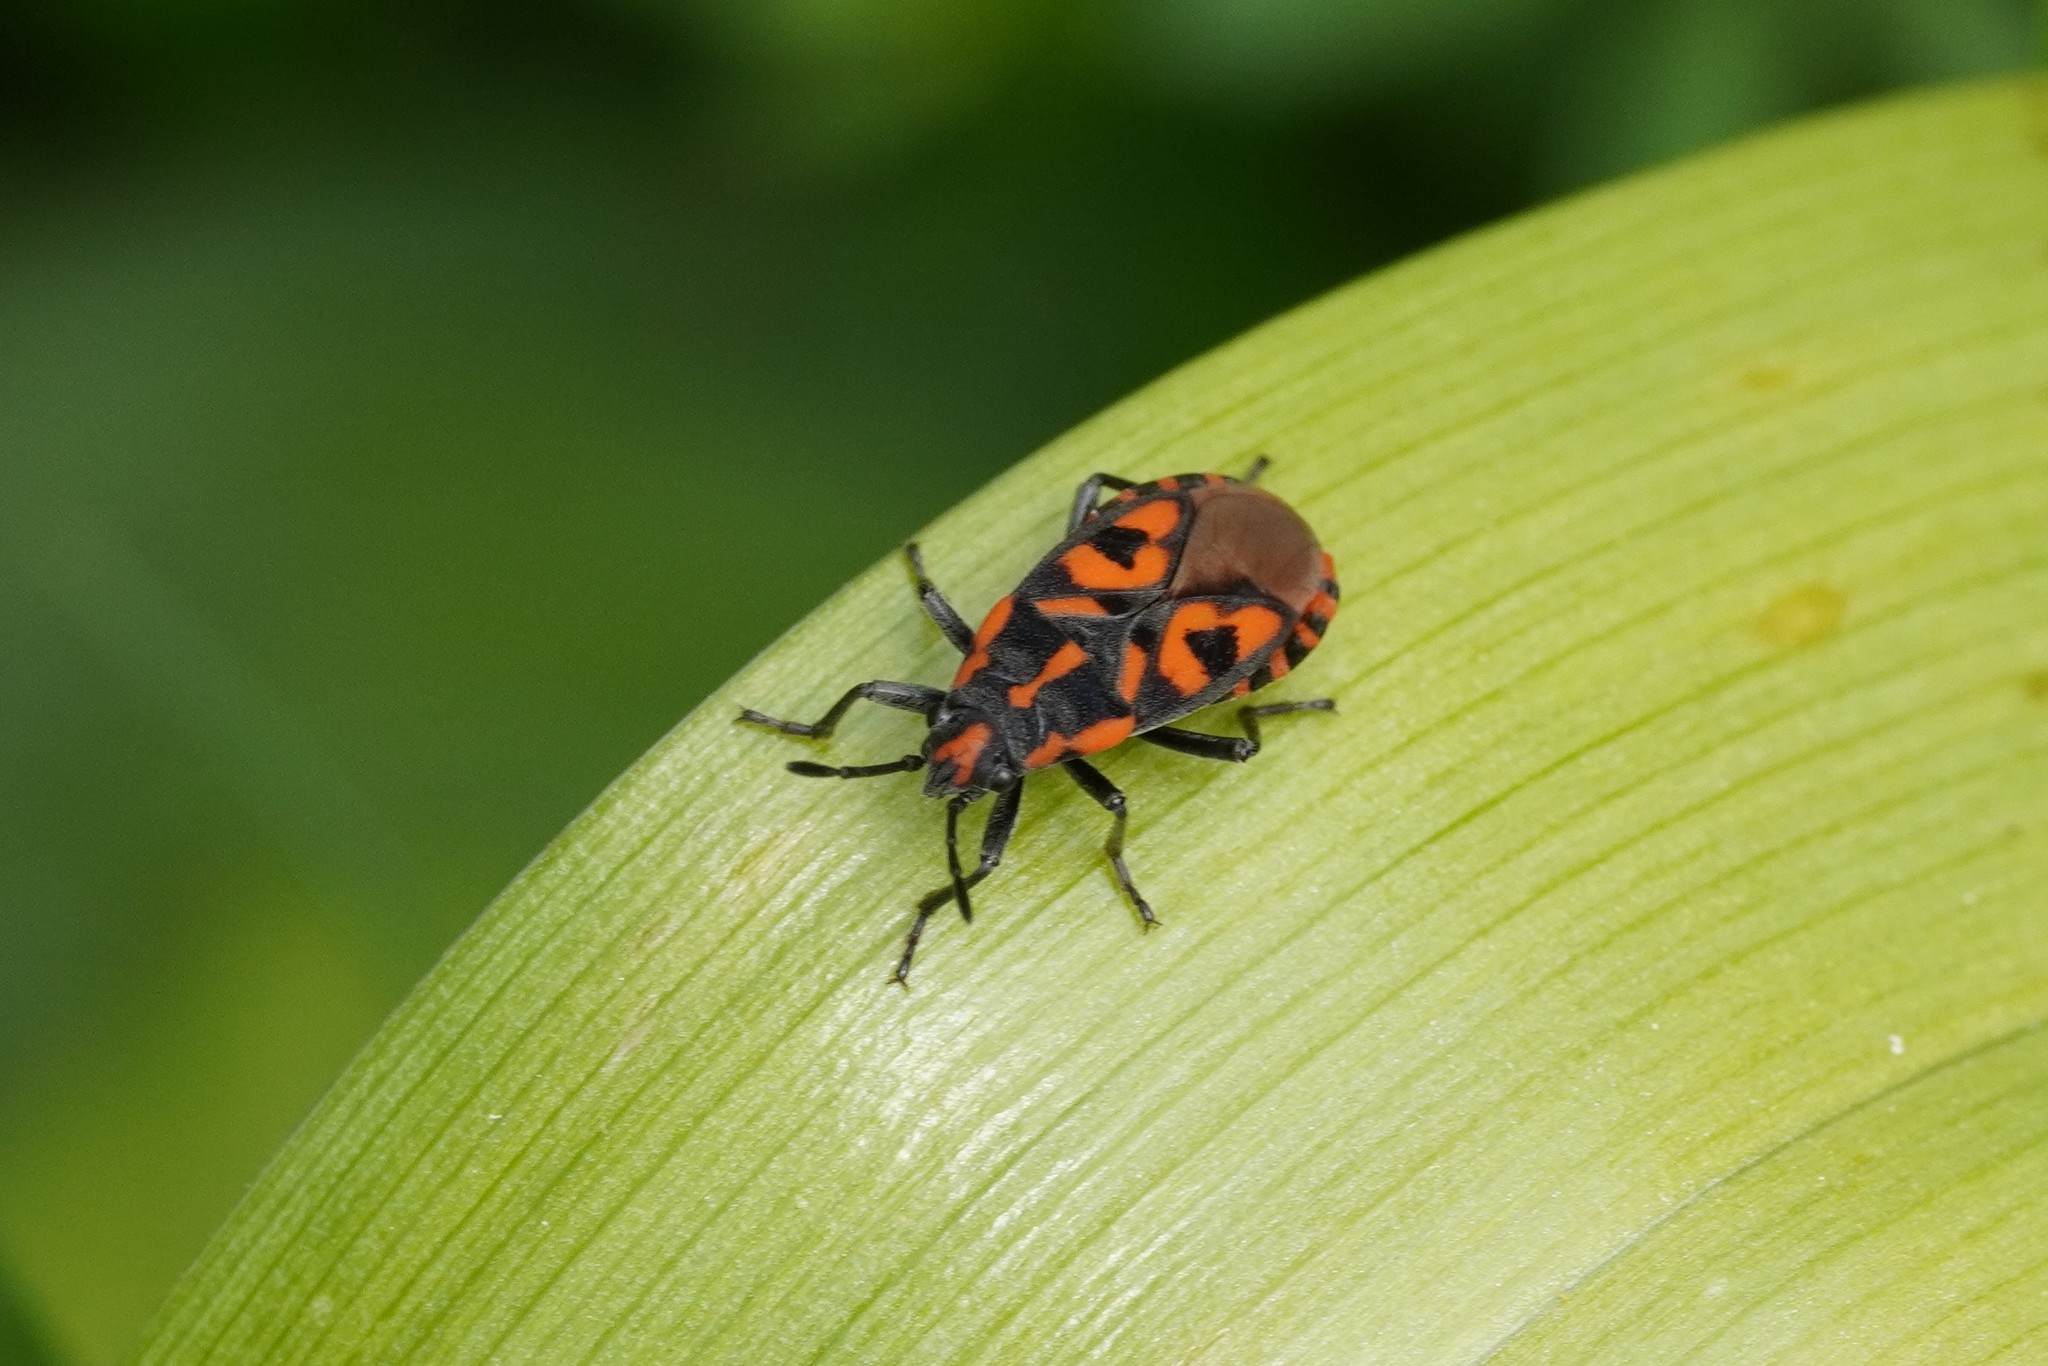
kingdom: Animalia
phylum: Arthropoda
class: Insecta
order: Hemiptera
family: Lygaeidae
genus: Spilostethus
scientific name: Spilostethus saxatilis
